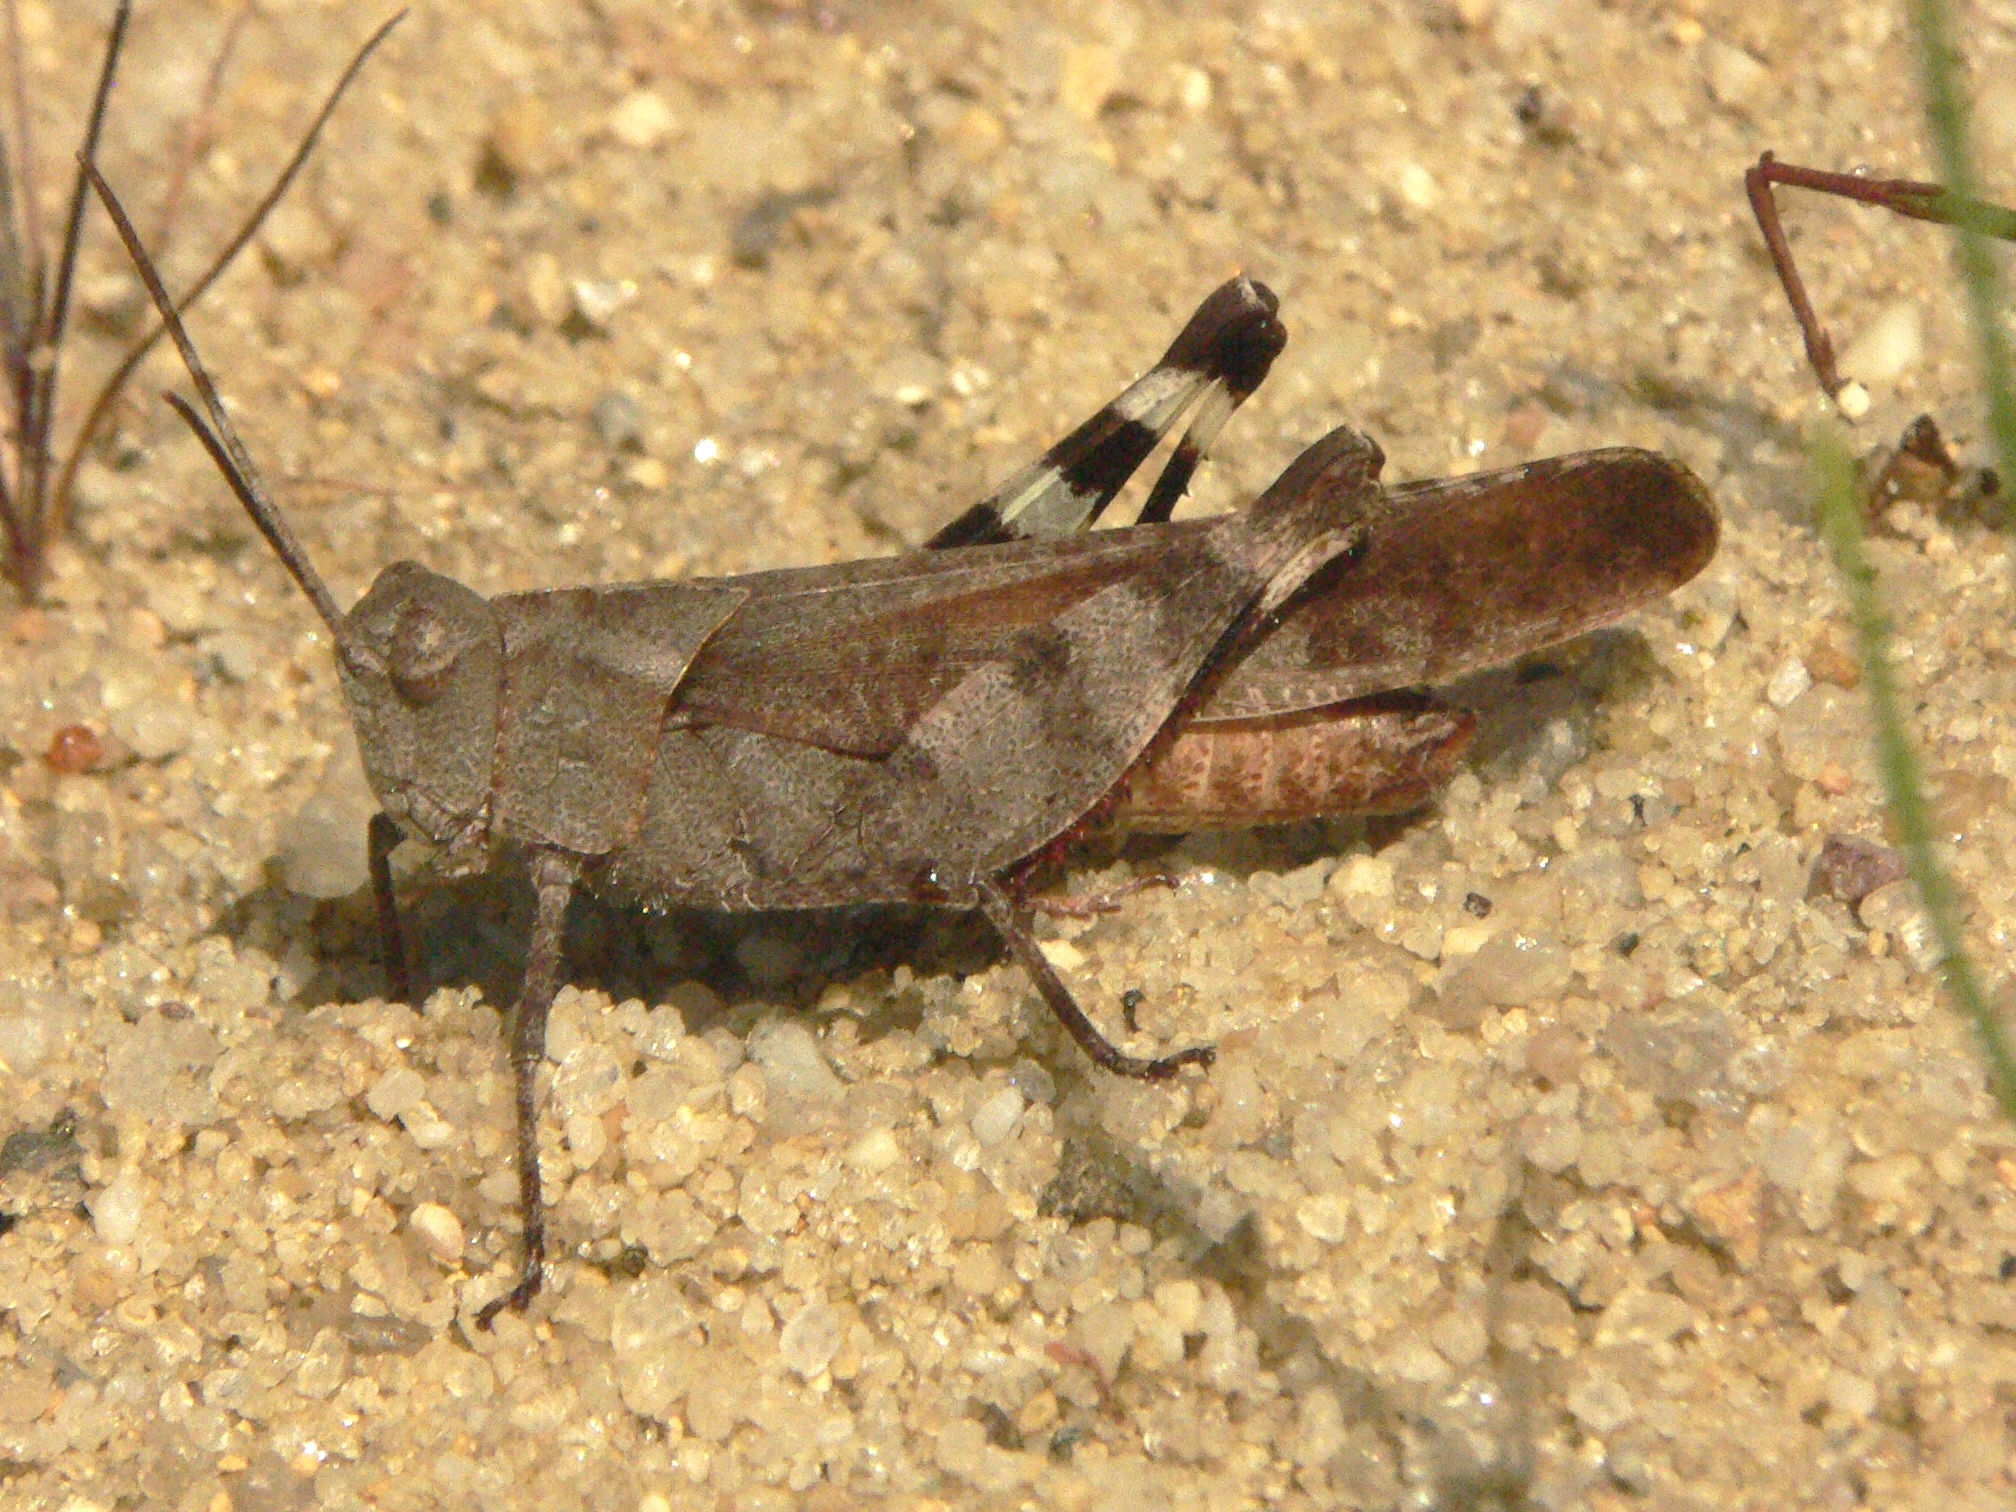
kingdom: Animalia
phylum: Arthropoda
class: Insecta
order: Orthoptera
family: Acrididae
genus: Spharagemon
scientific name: Spharagemon bolli
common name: Boll's grasshopper
